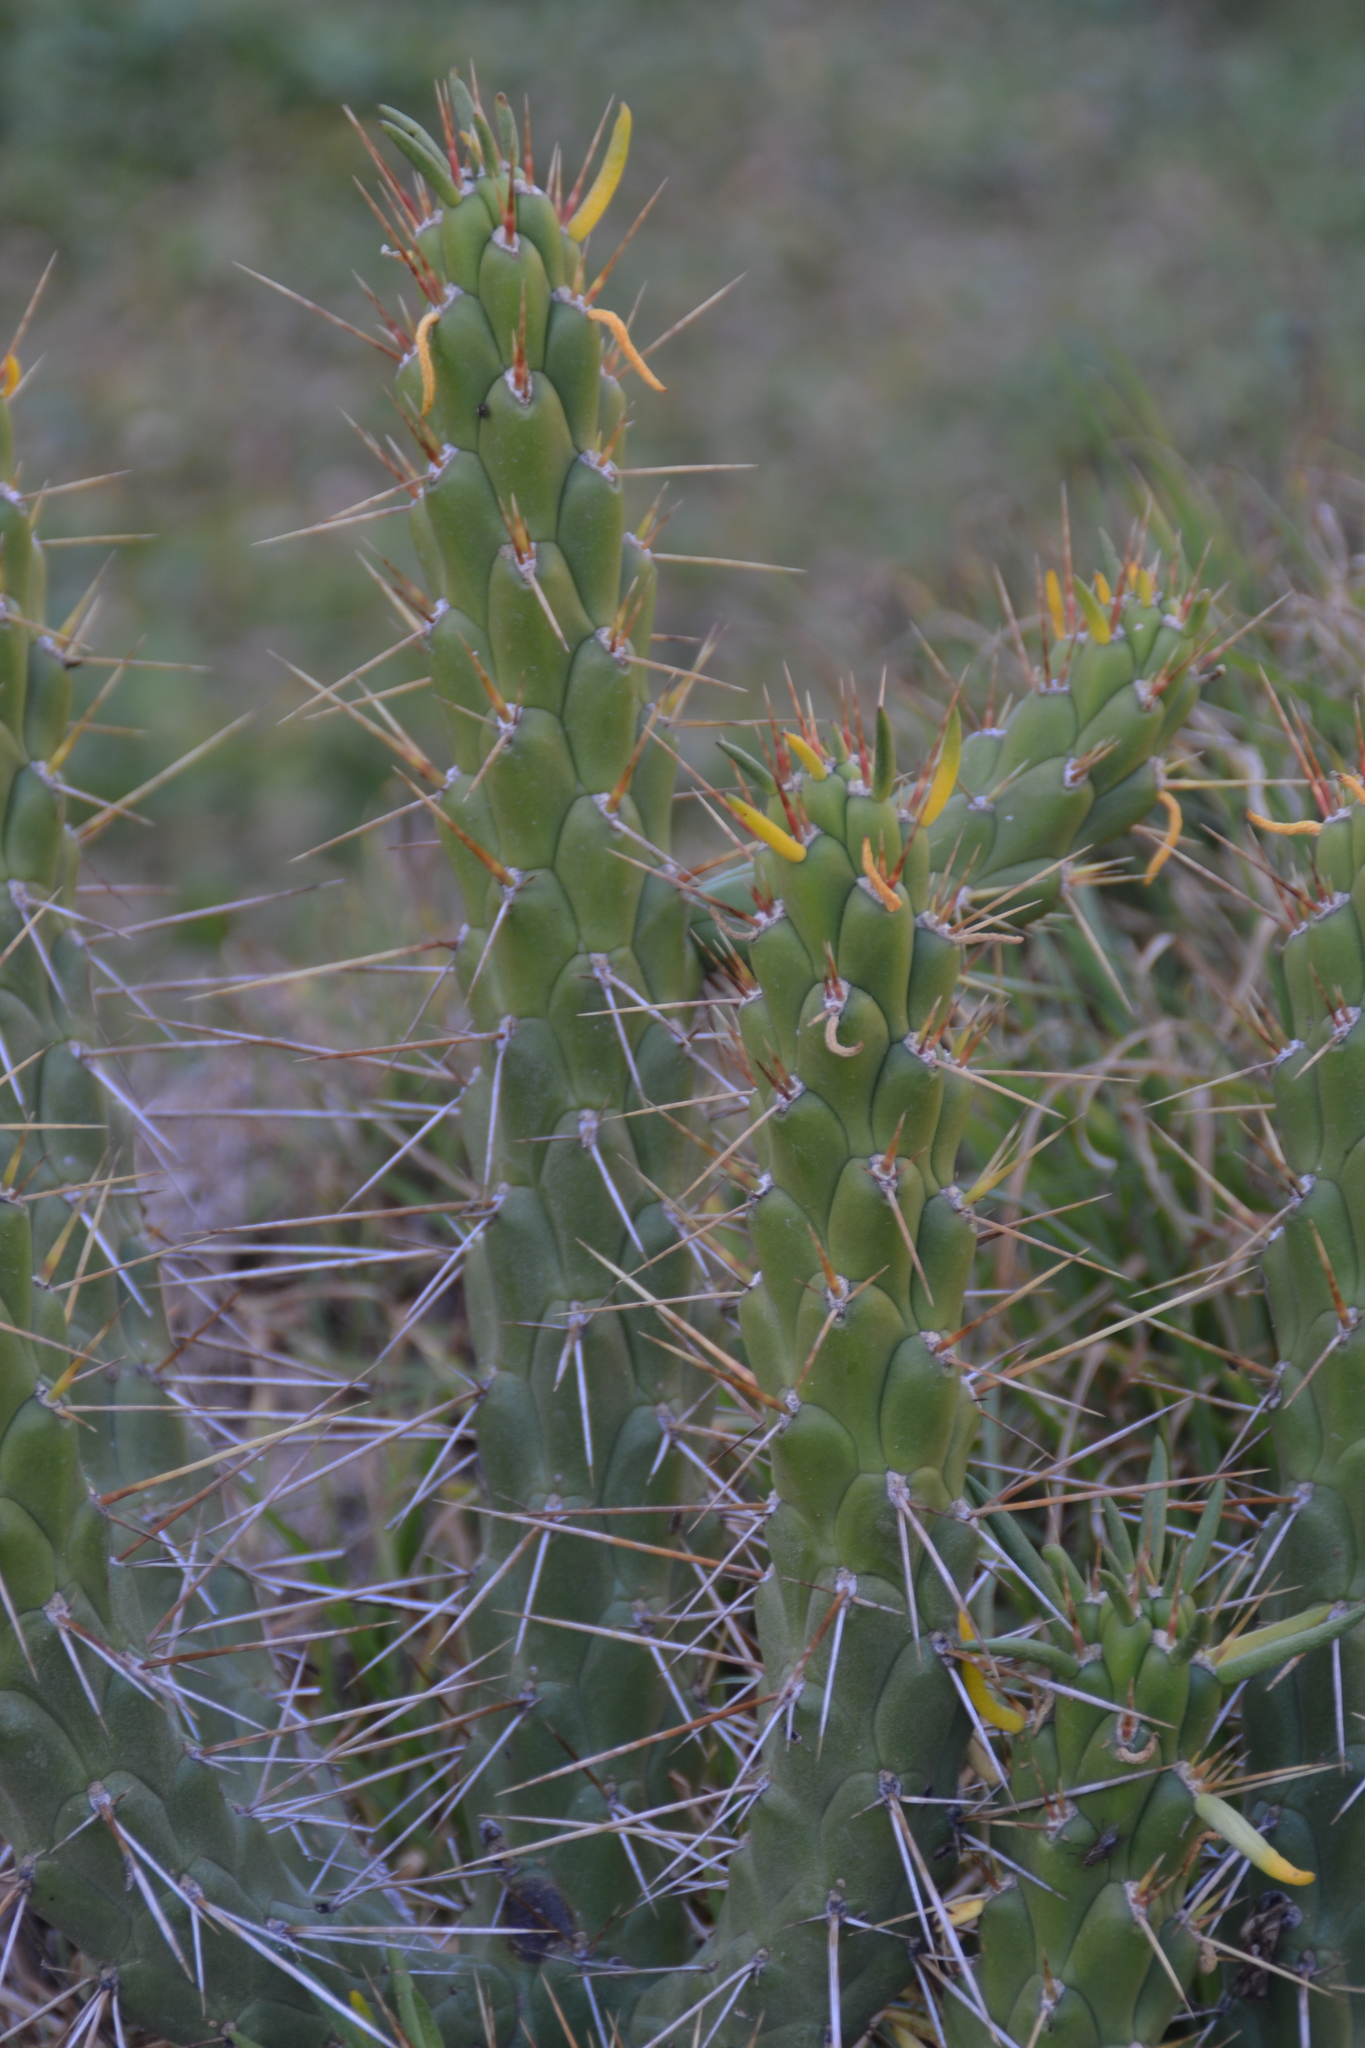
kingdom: Plantae
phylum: Tracheophyta
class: Magnoliopsida
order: Caryophyllales
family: Cactaceae
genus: Austrocylindropuntia
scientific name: Austrocylindropuntia subulata
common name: Eve's needle cactus
